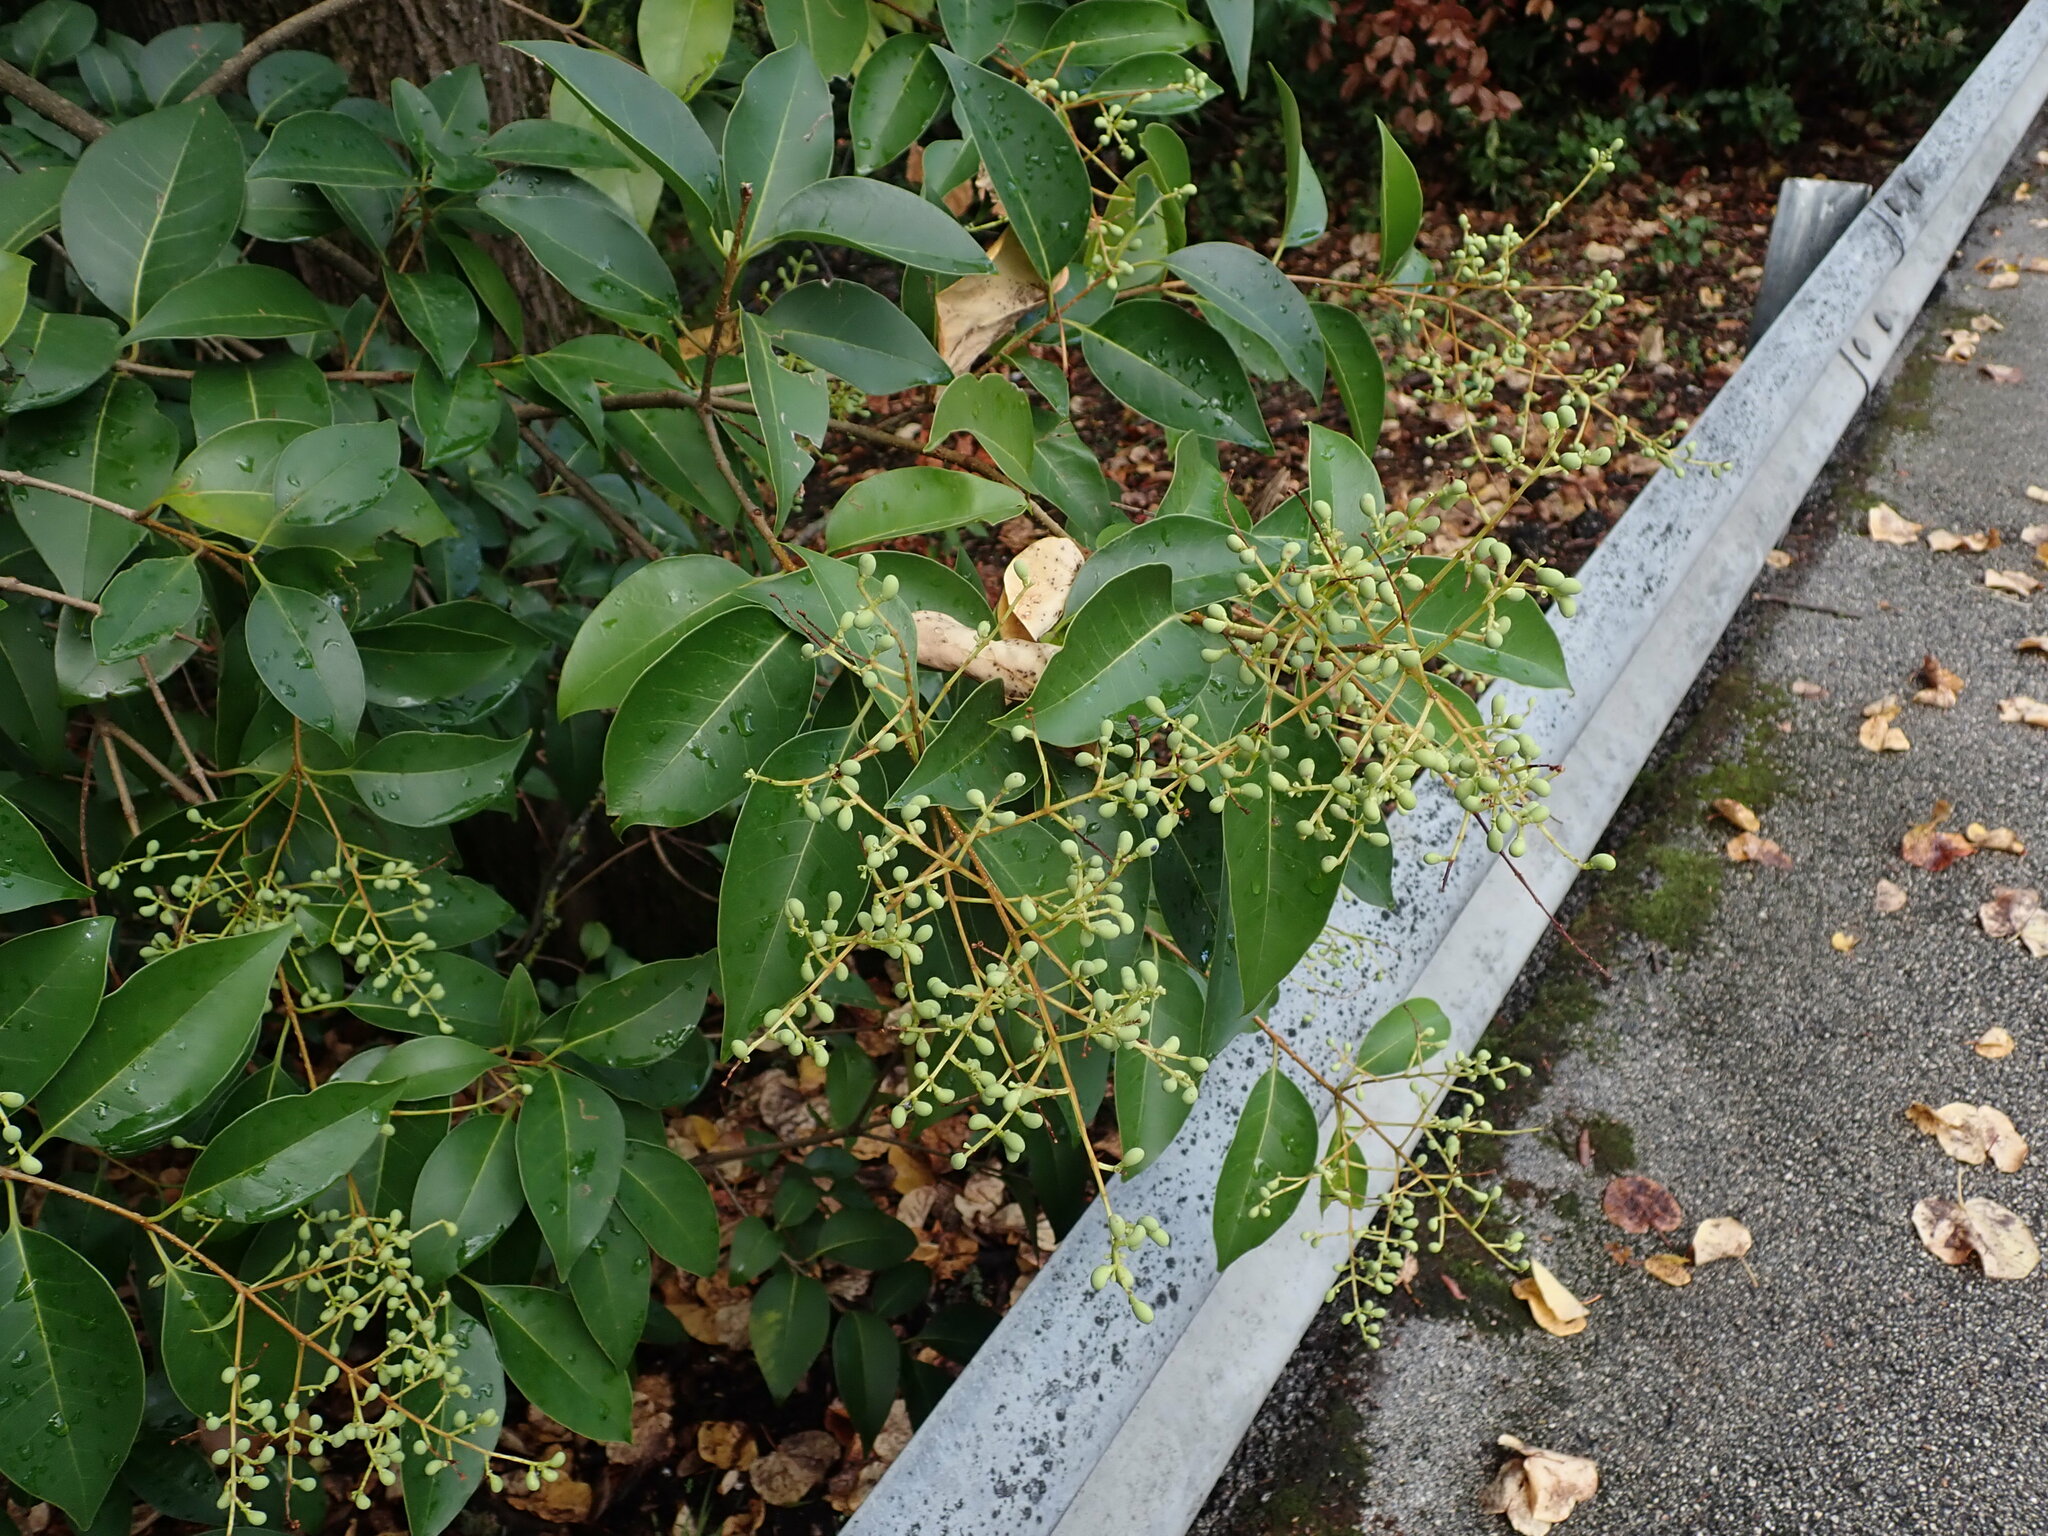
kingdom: Plantae
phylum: Tracheophyta
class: Magnoliopsida
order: Lamiales
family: Oleaceae
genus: Ligustrum
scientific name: Ligustrum lucidum
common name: Glossy privet
